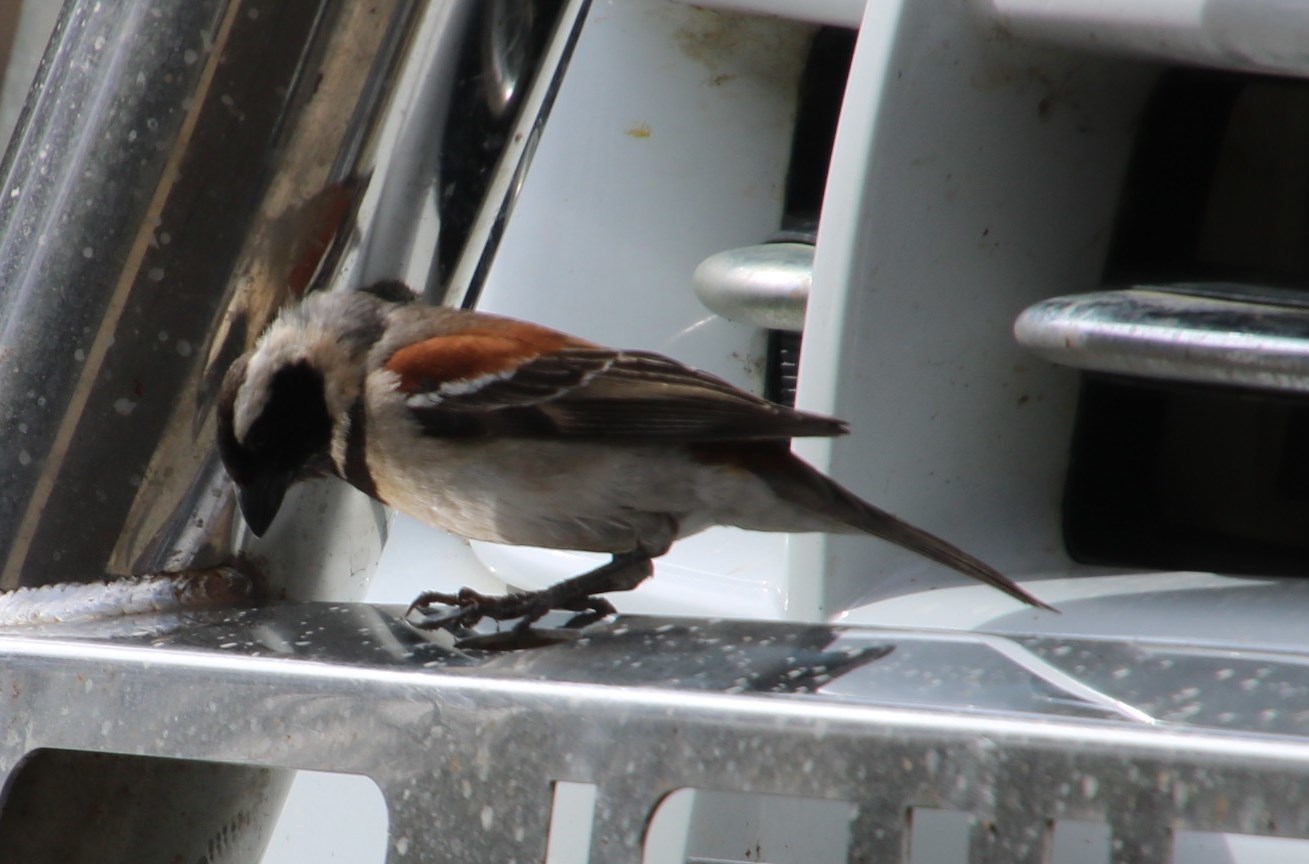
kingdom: Animalia
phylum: Chordata
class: Aves
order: Passeriformes
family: Passeridae
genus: Passer
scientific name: Passer melanurus
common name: Cape sparrow
